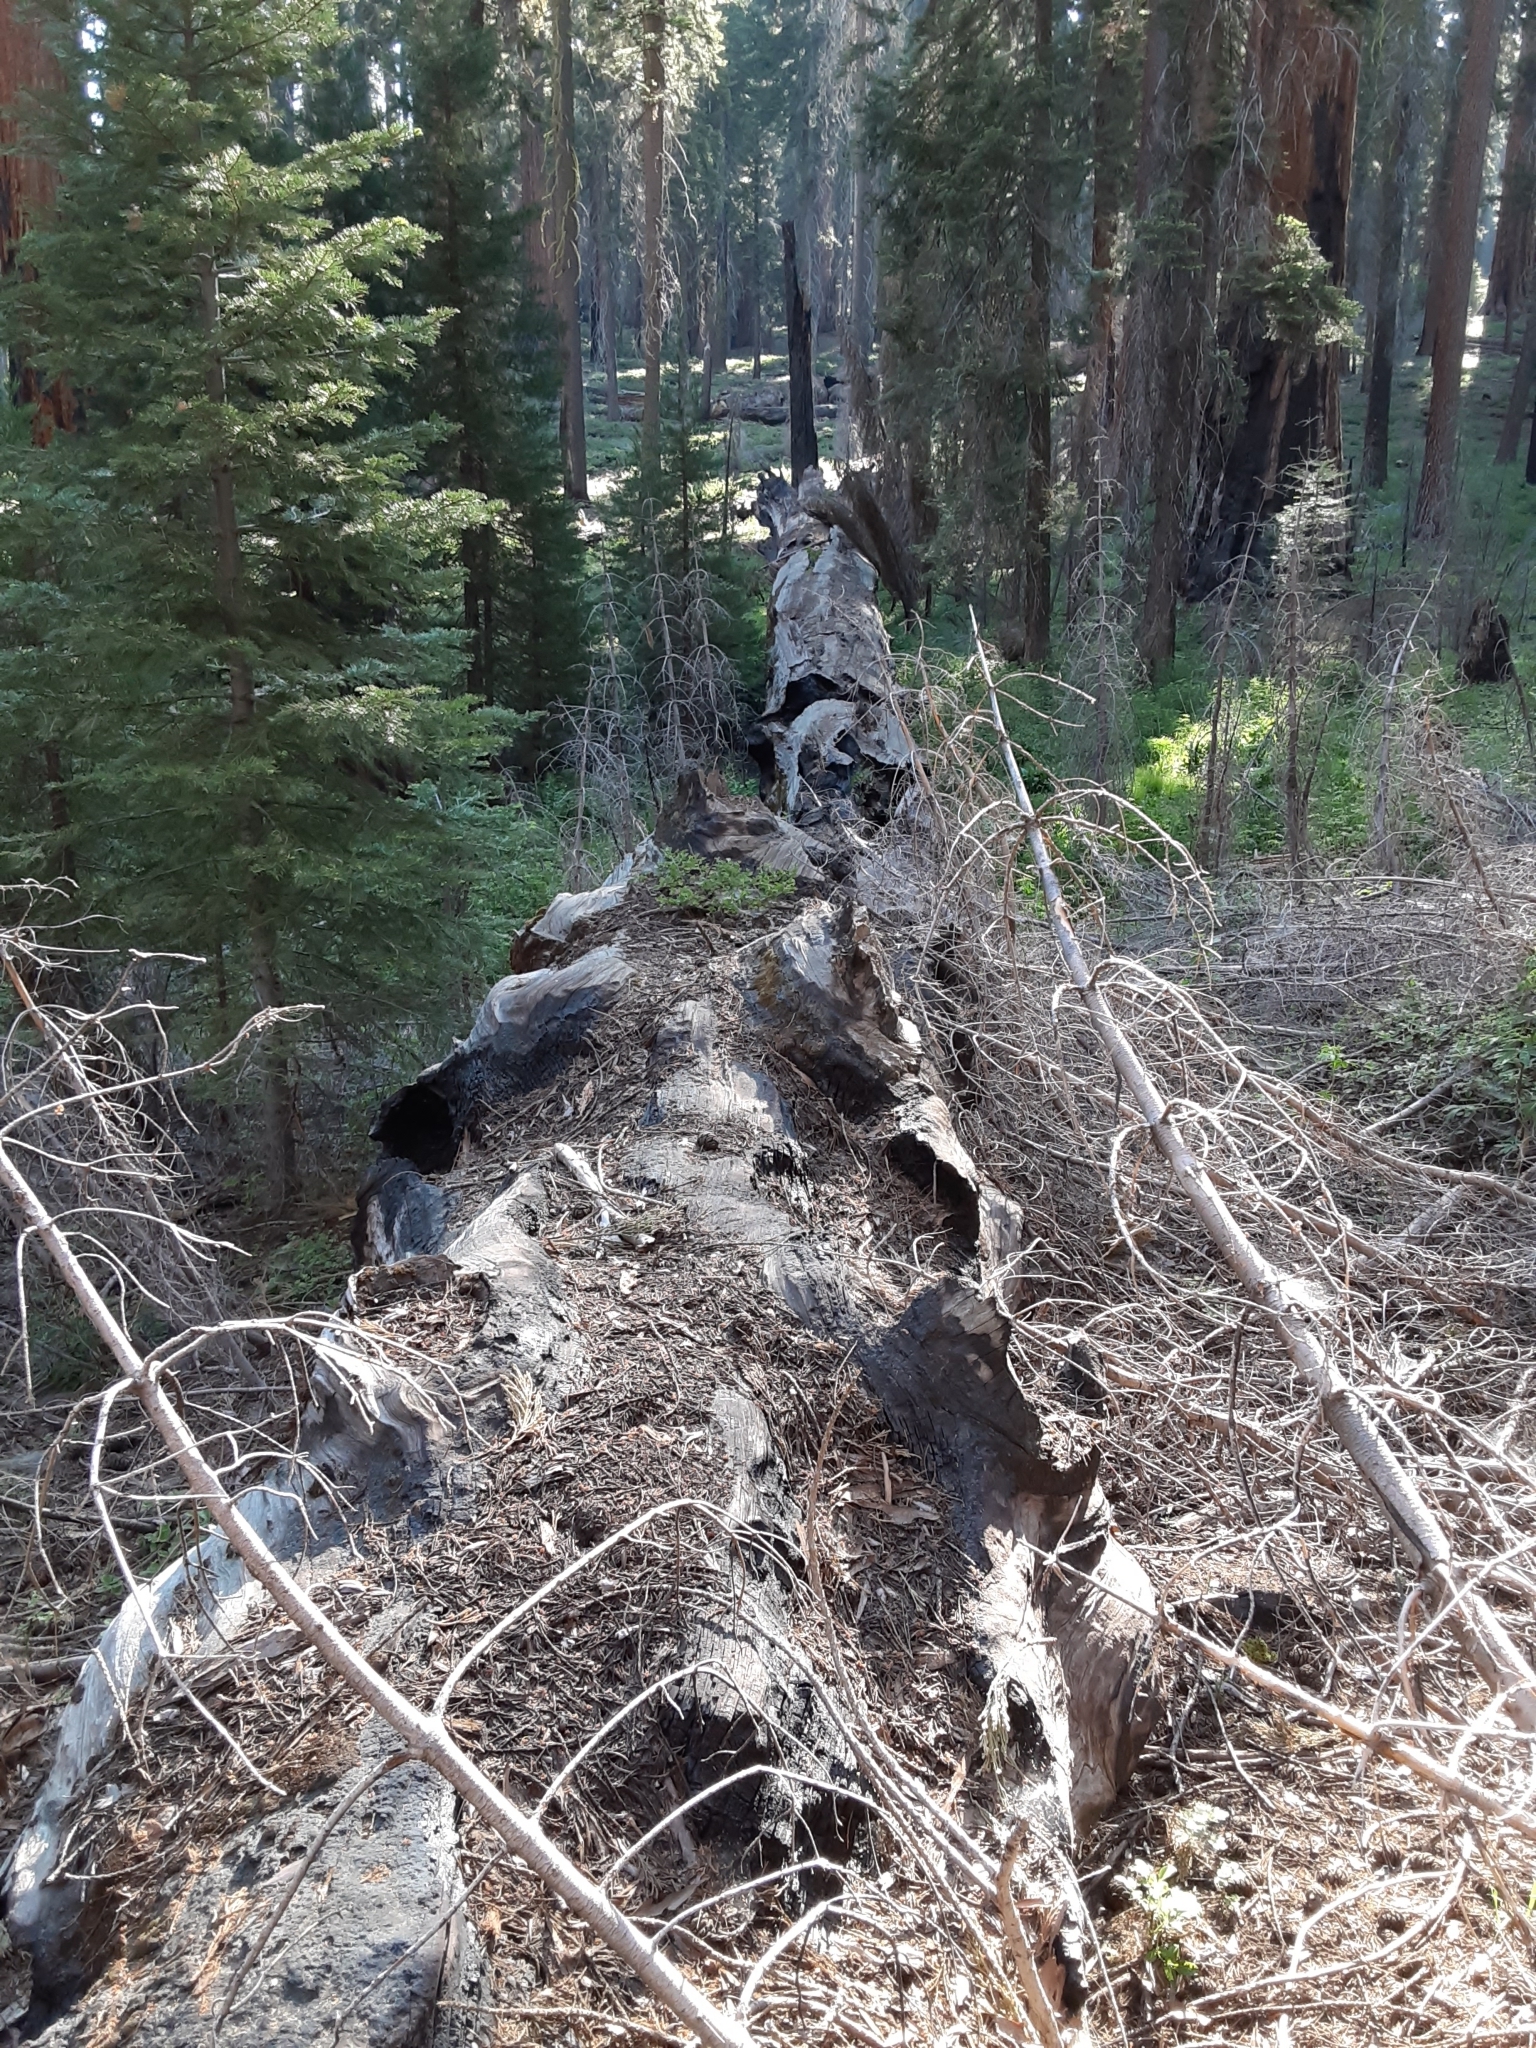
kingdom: Plantae
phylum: Tracheophyta
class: Pinopsida
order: Pinales
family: Cupressaceae
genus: Sequoiadendron
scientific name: Sequoiadendron giganteum
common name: Wellingtonia
